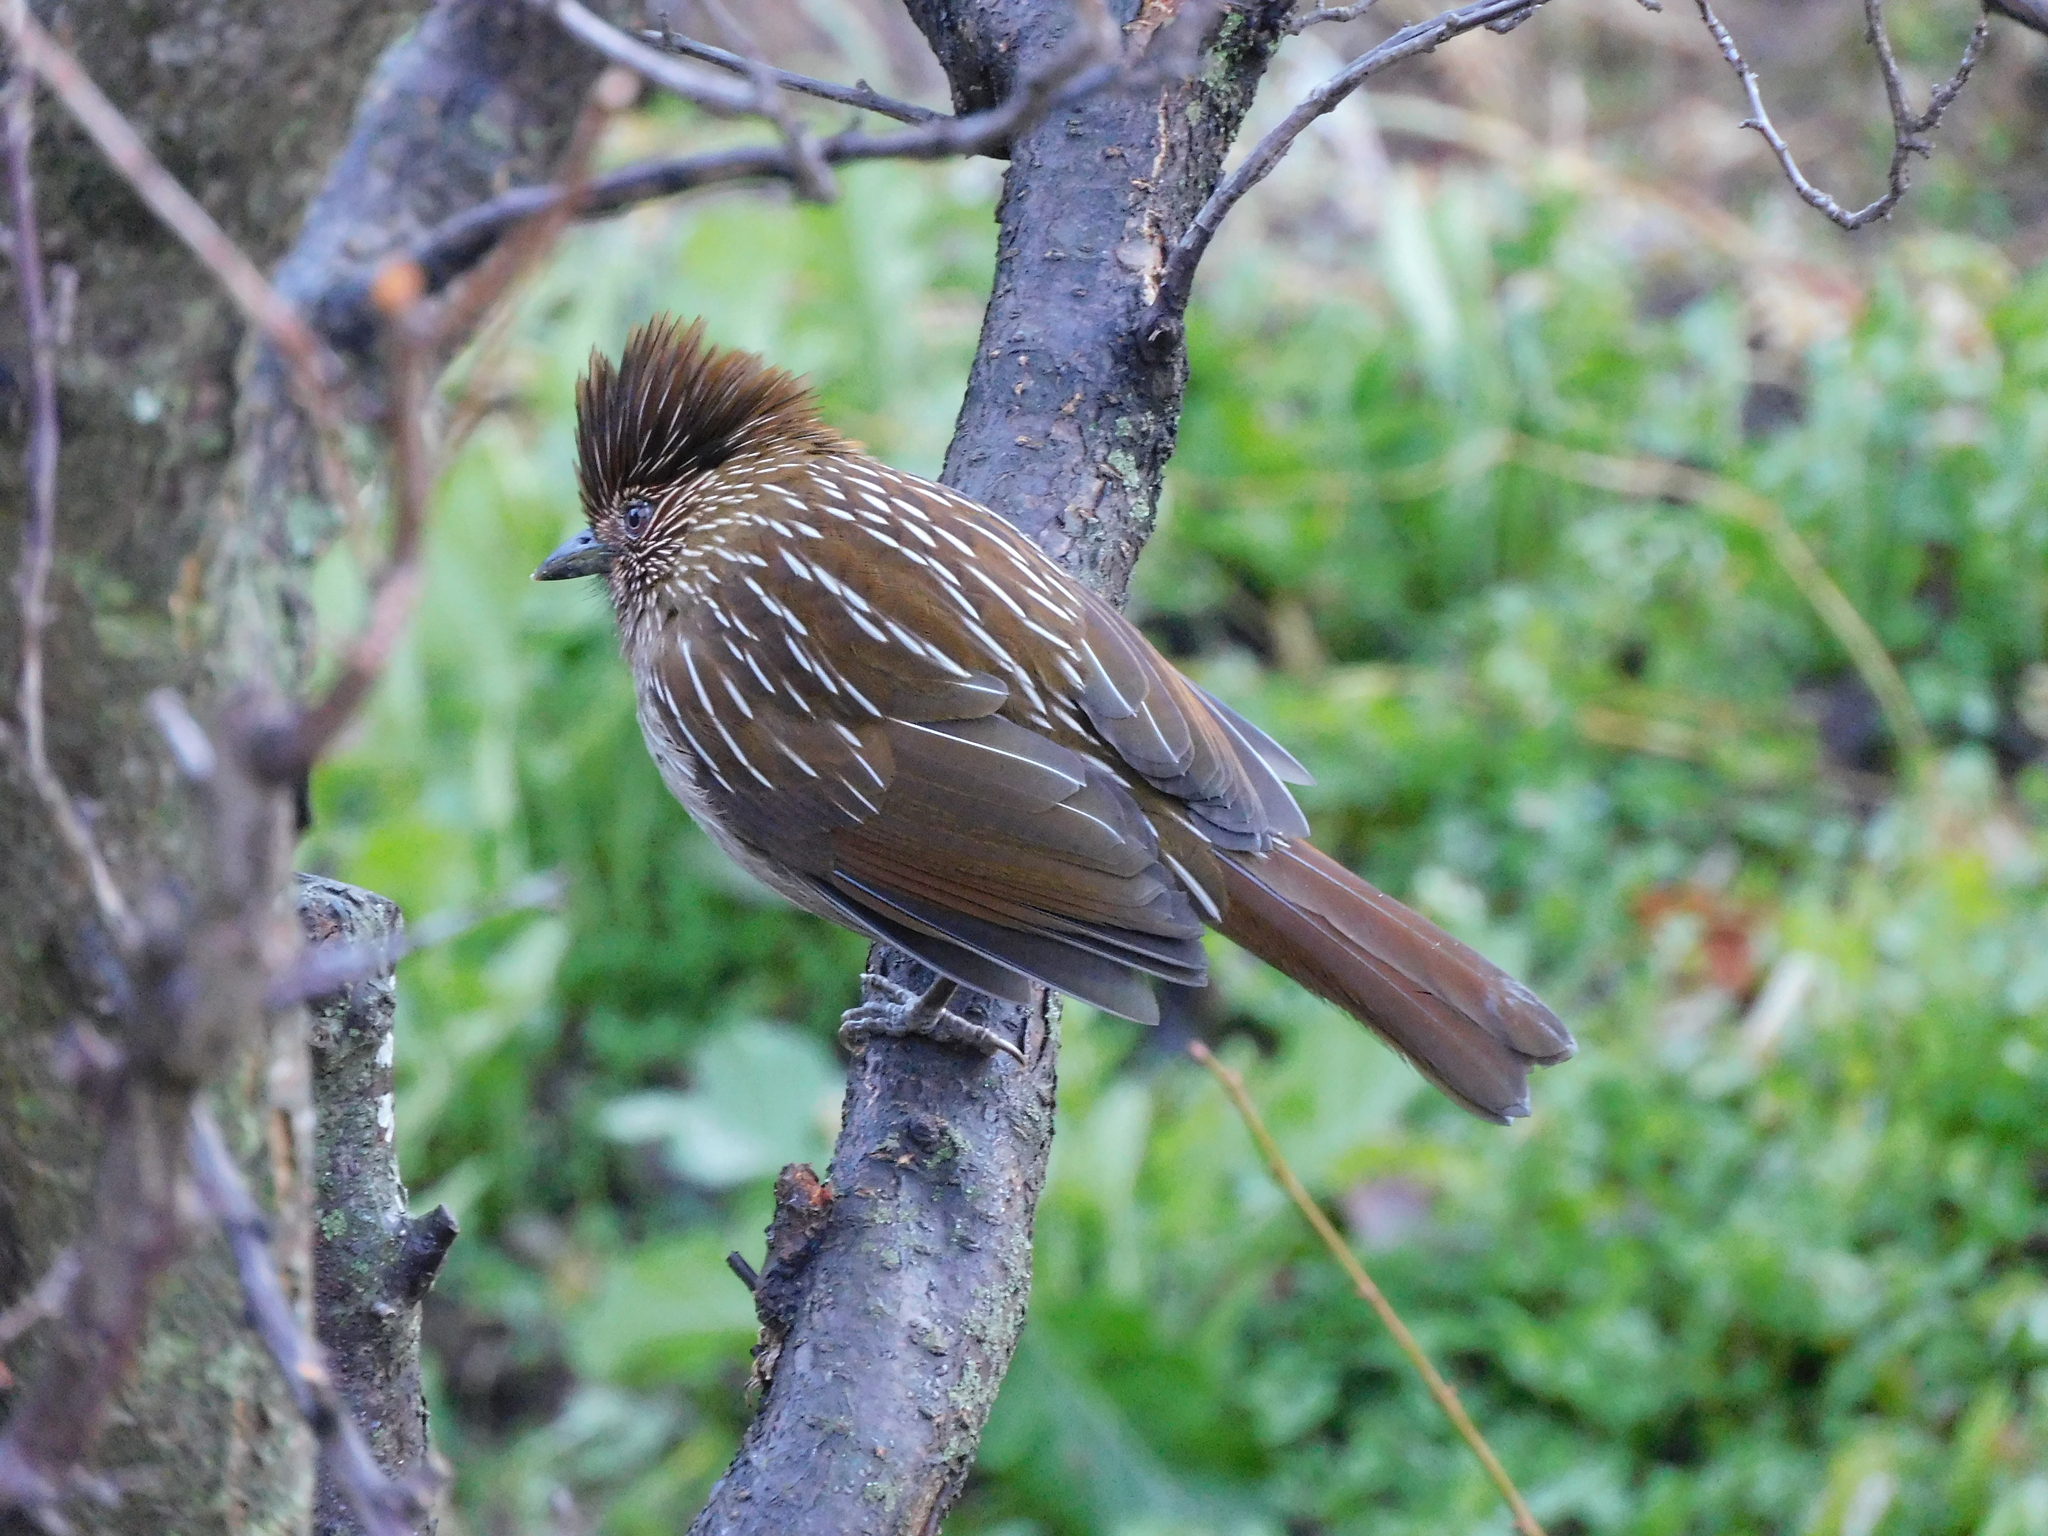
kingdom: Animalia
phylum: Chordata
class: Aves
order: Passeriformes
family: Leiothrichidae
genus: Garrulax
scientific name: Garrulax striatus
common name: Striated laughingthrush
